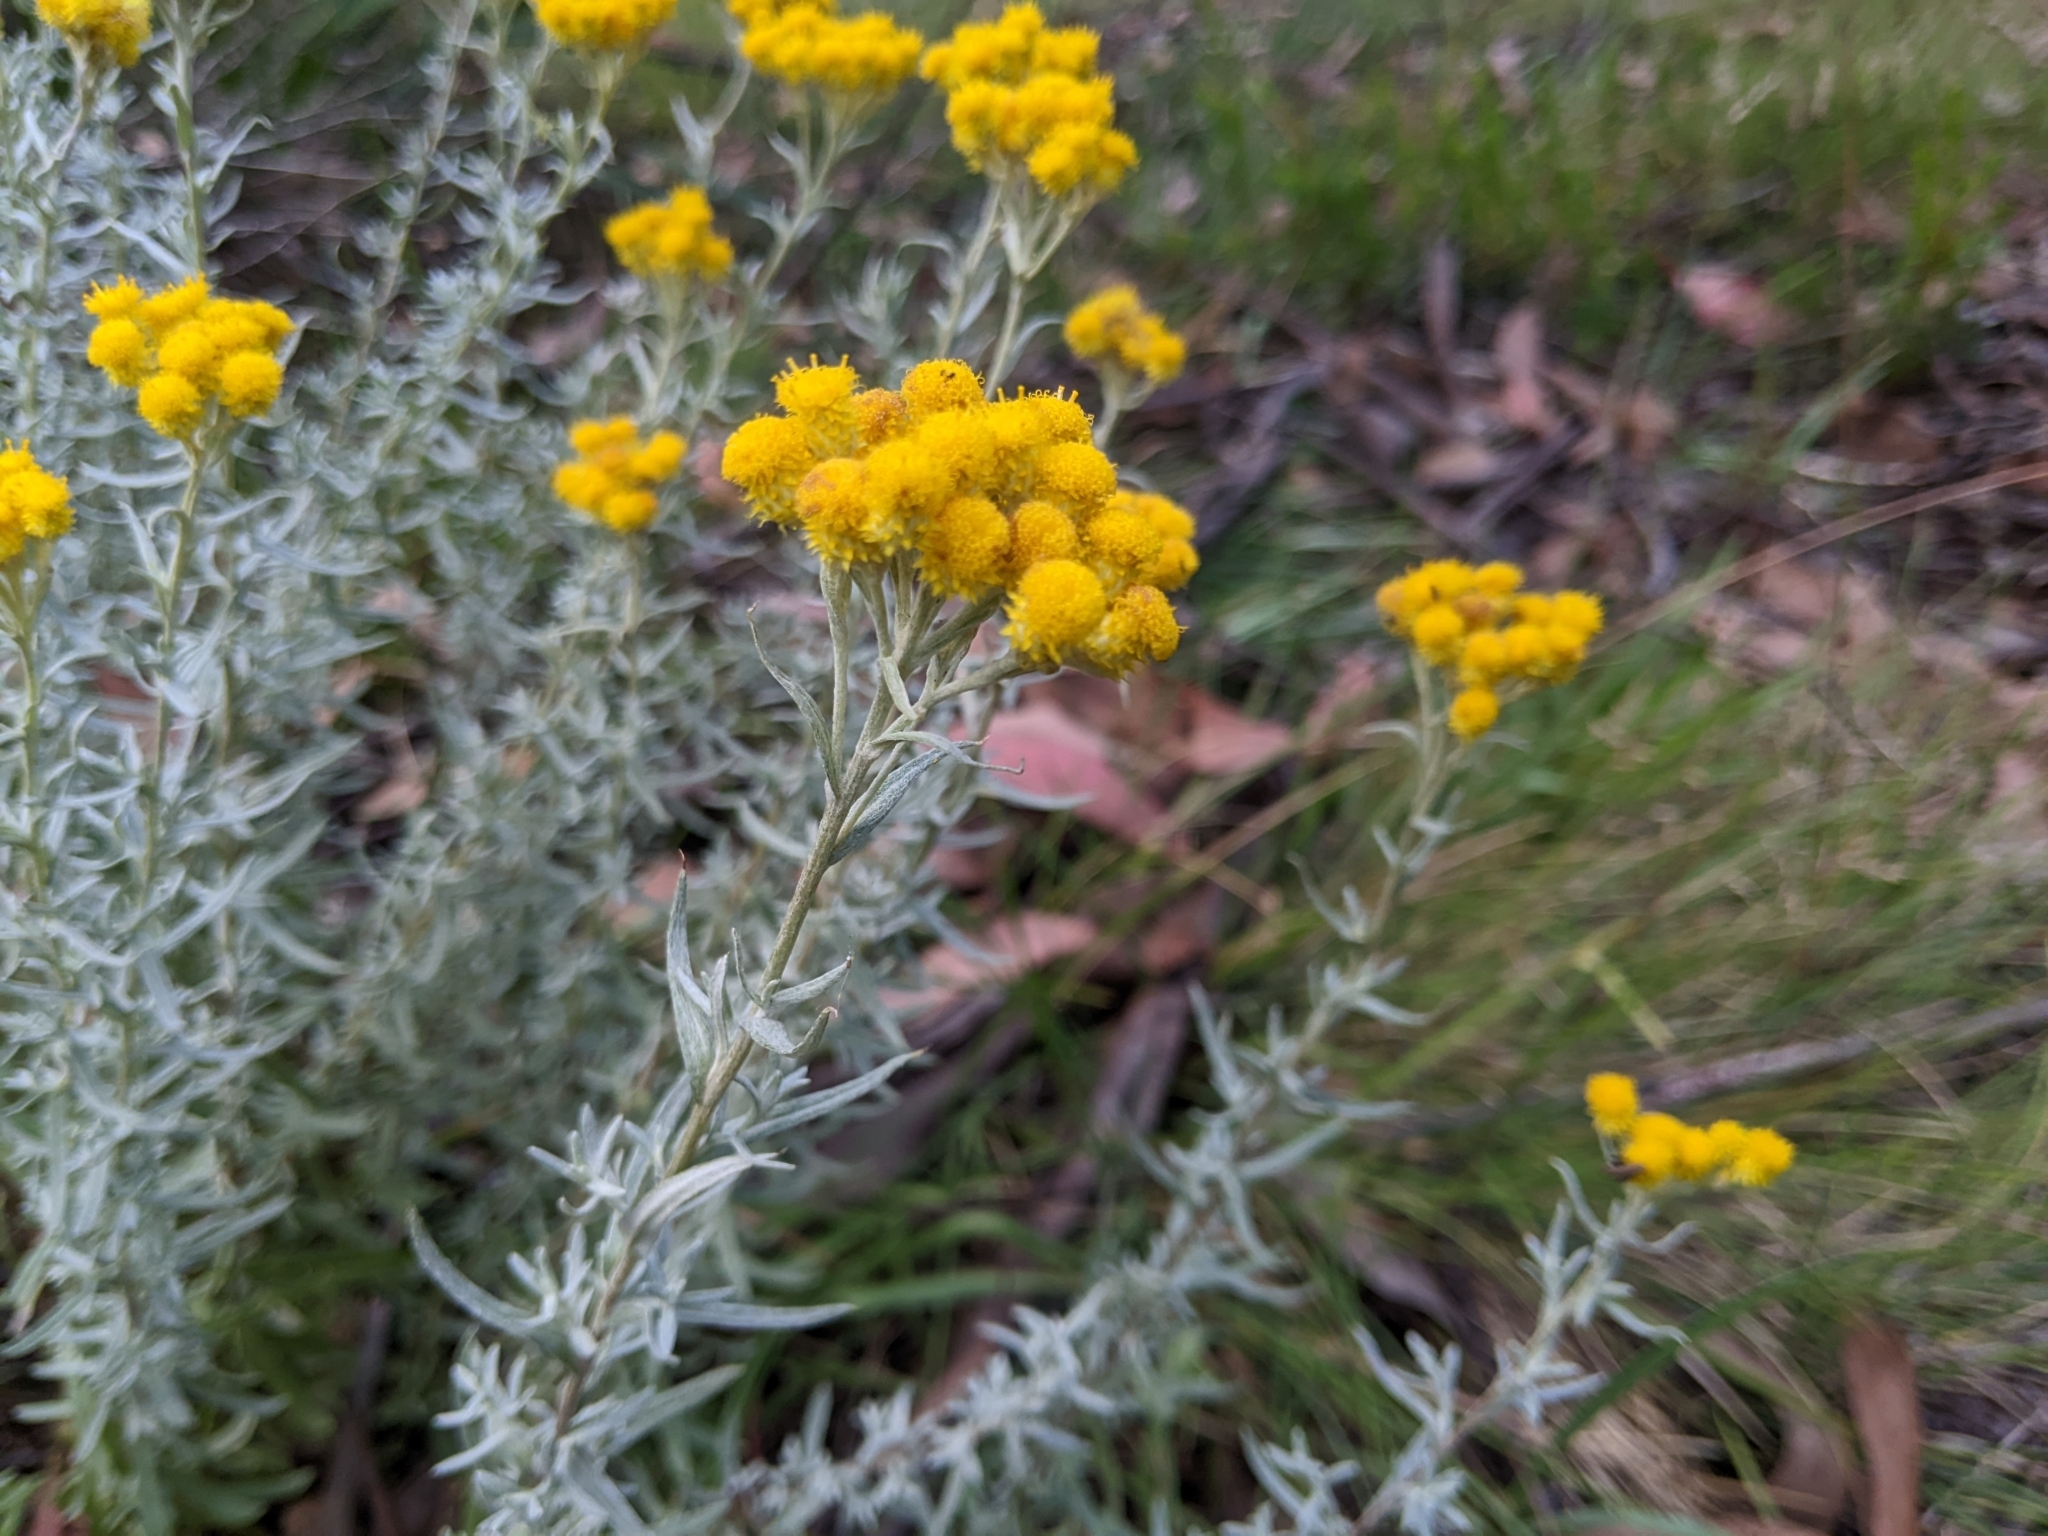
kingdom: Plantae
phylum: Tracheophyta
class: Magnoliopsida
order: Asterales
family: Asteraceae
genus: Chrysocephalum
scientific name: Chrysocephalum semipapposum
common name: Clustered everlasting
